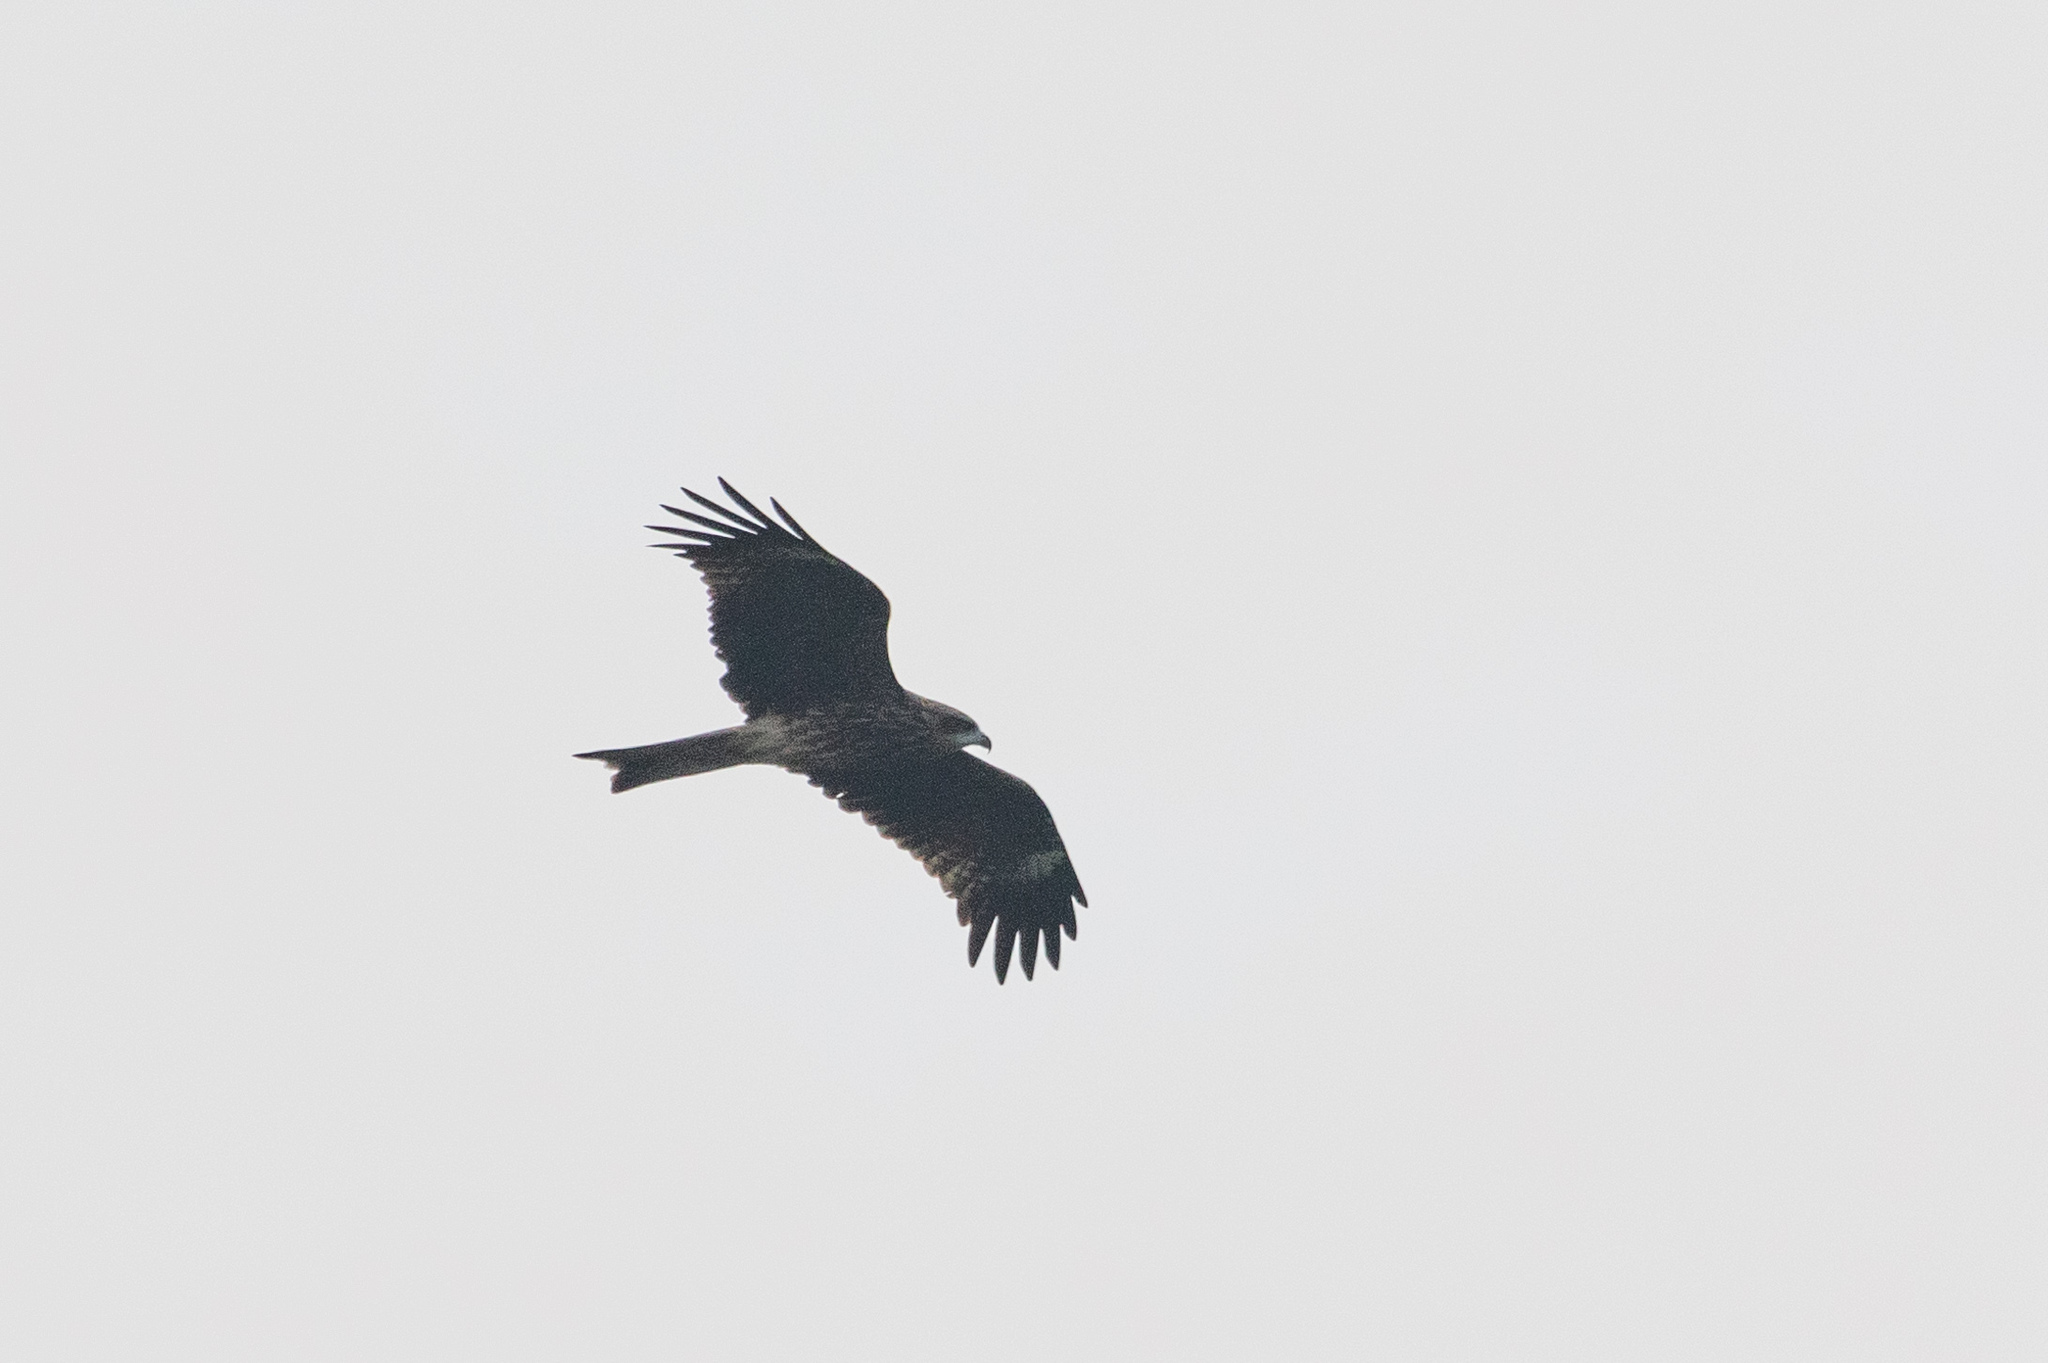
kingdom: Animalia
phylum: Chordata
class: Aves
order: Accipitriformes
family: Accipitridae
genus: Milvus
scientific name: Milvus migrans
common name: Black kite
